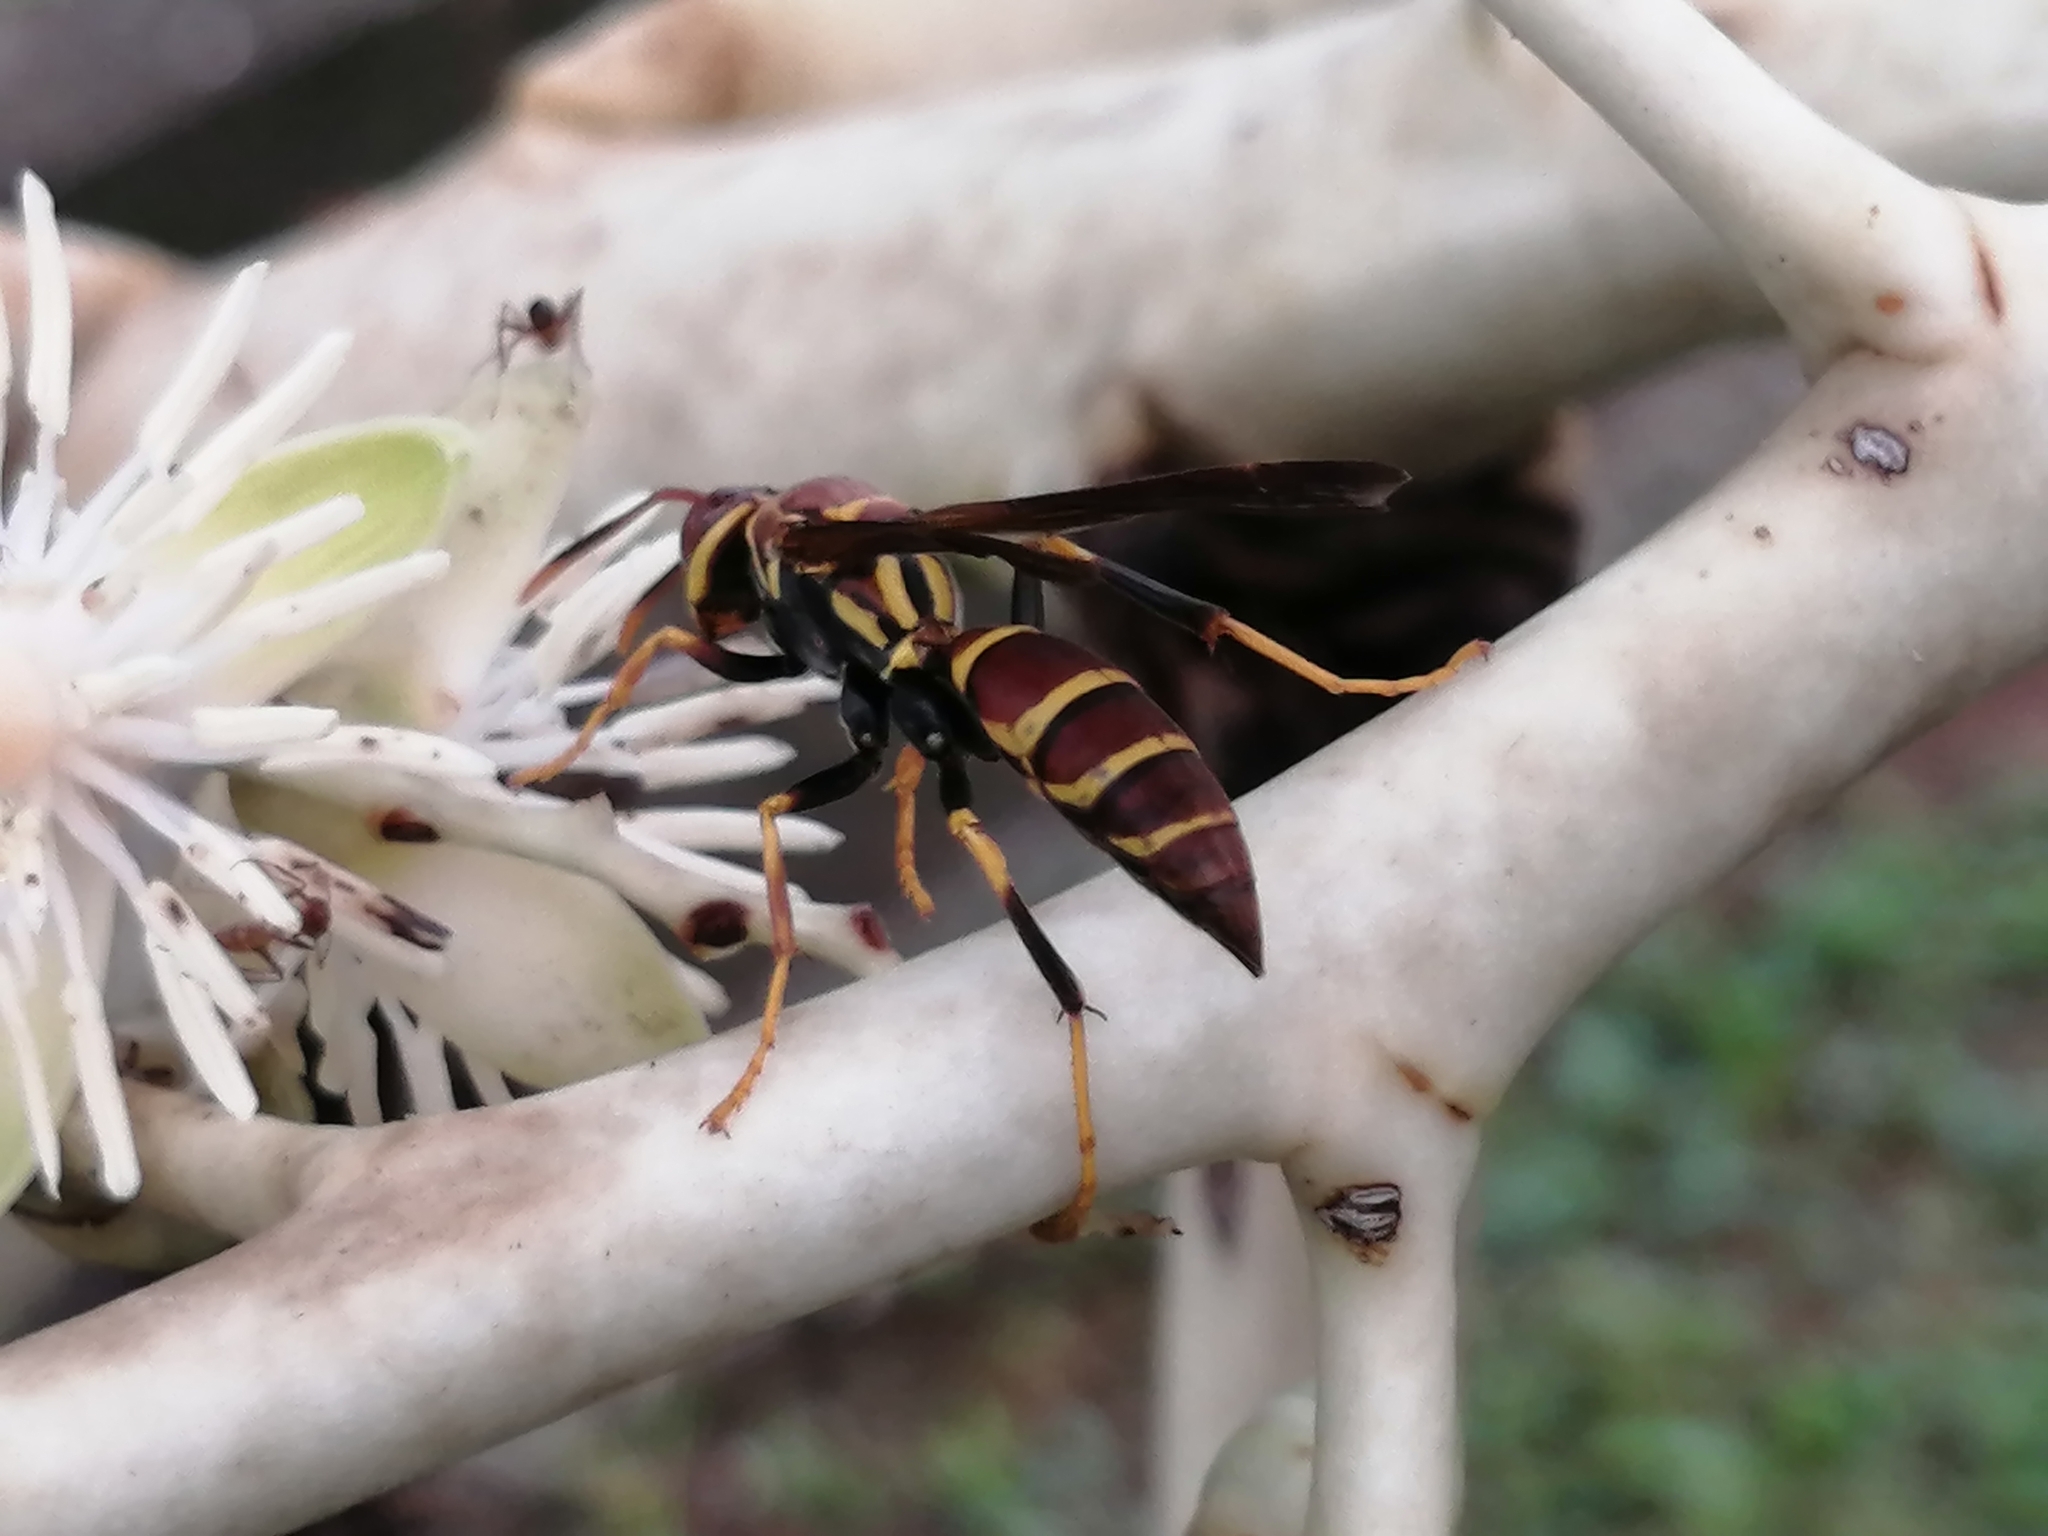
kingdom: Animalia
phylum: Arthropoda
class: Insecta
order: Hymenoptera
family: Eumenidae
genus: Polistes
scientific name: Polistes instabilis
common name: Unstable paper wasp
